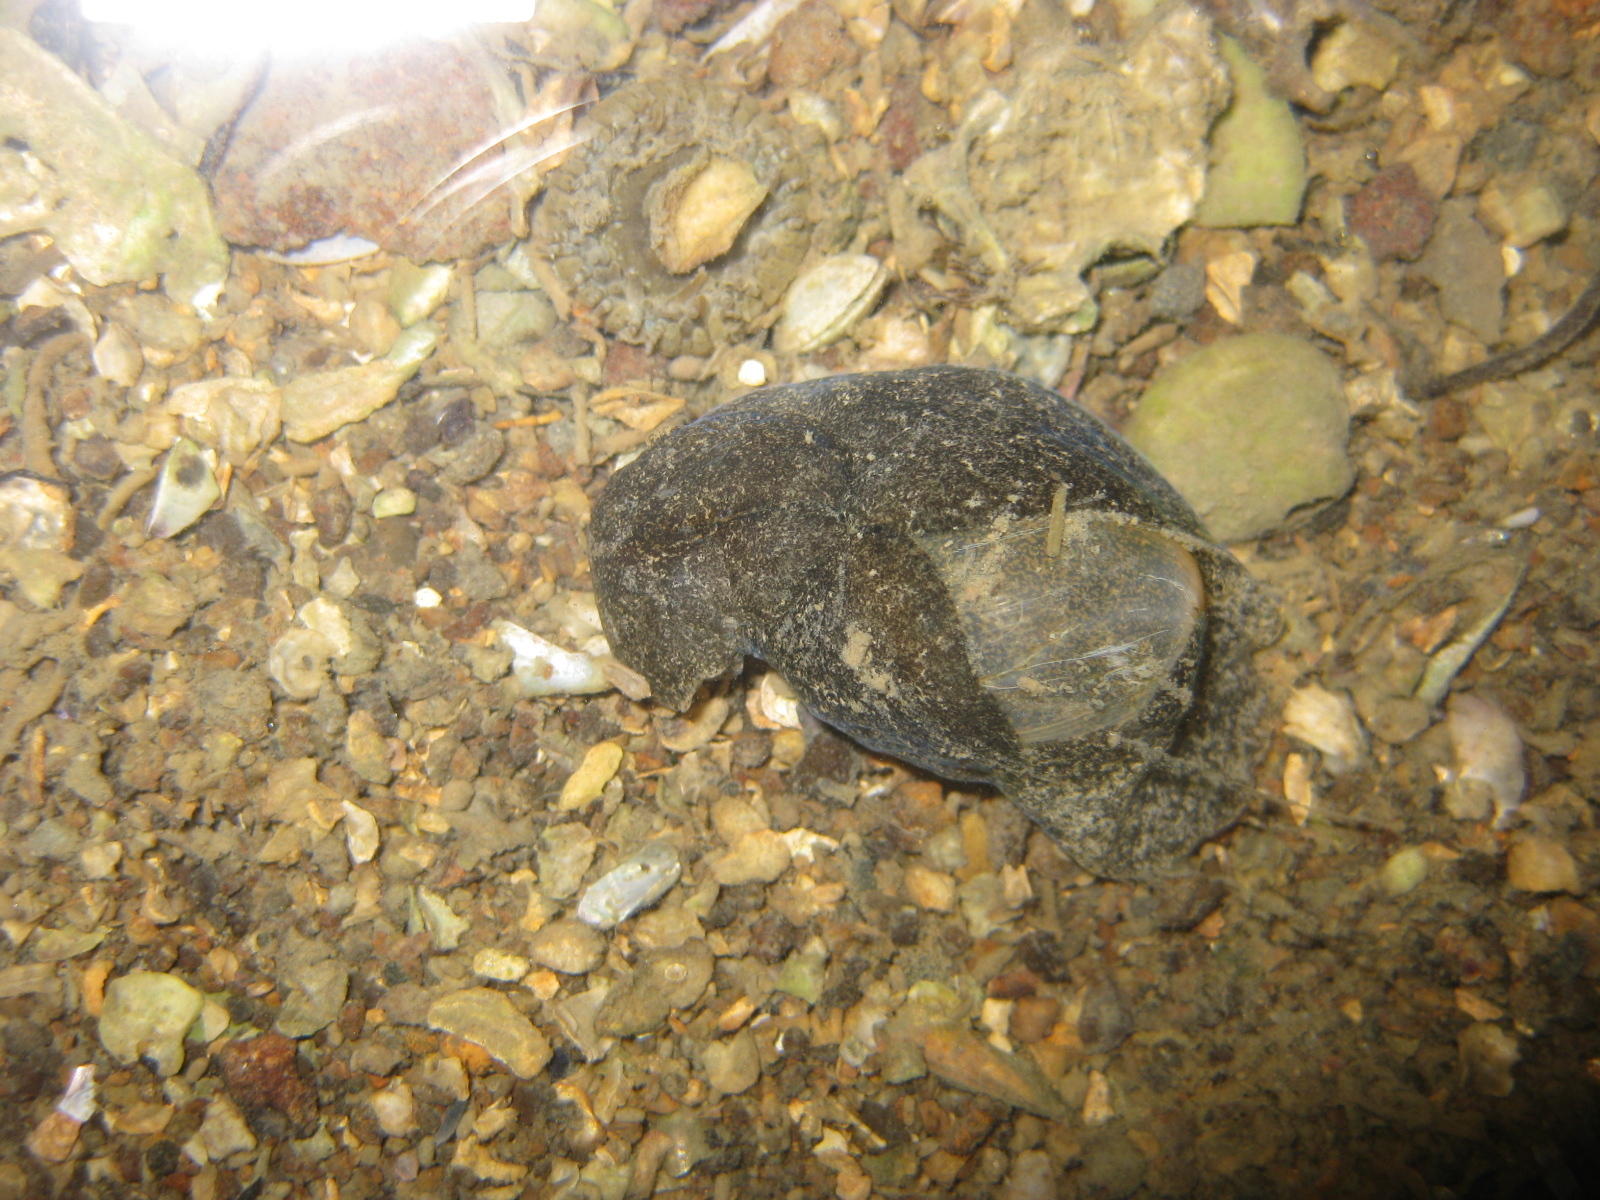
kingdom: Animalia
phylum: Mollusca
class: Gastropoda
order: Cephalaspidea
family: Haminoeidae
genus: Papawera
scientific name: Papawera zelandiae
